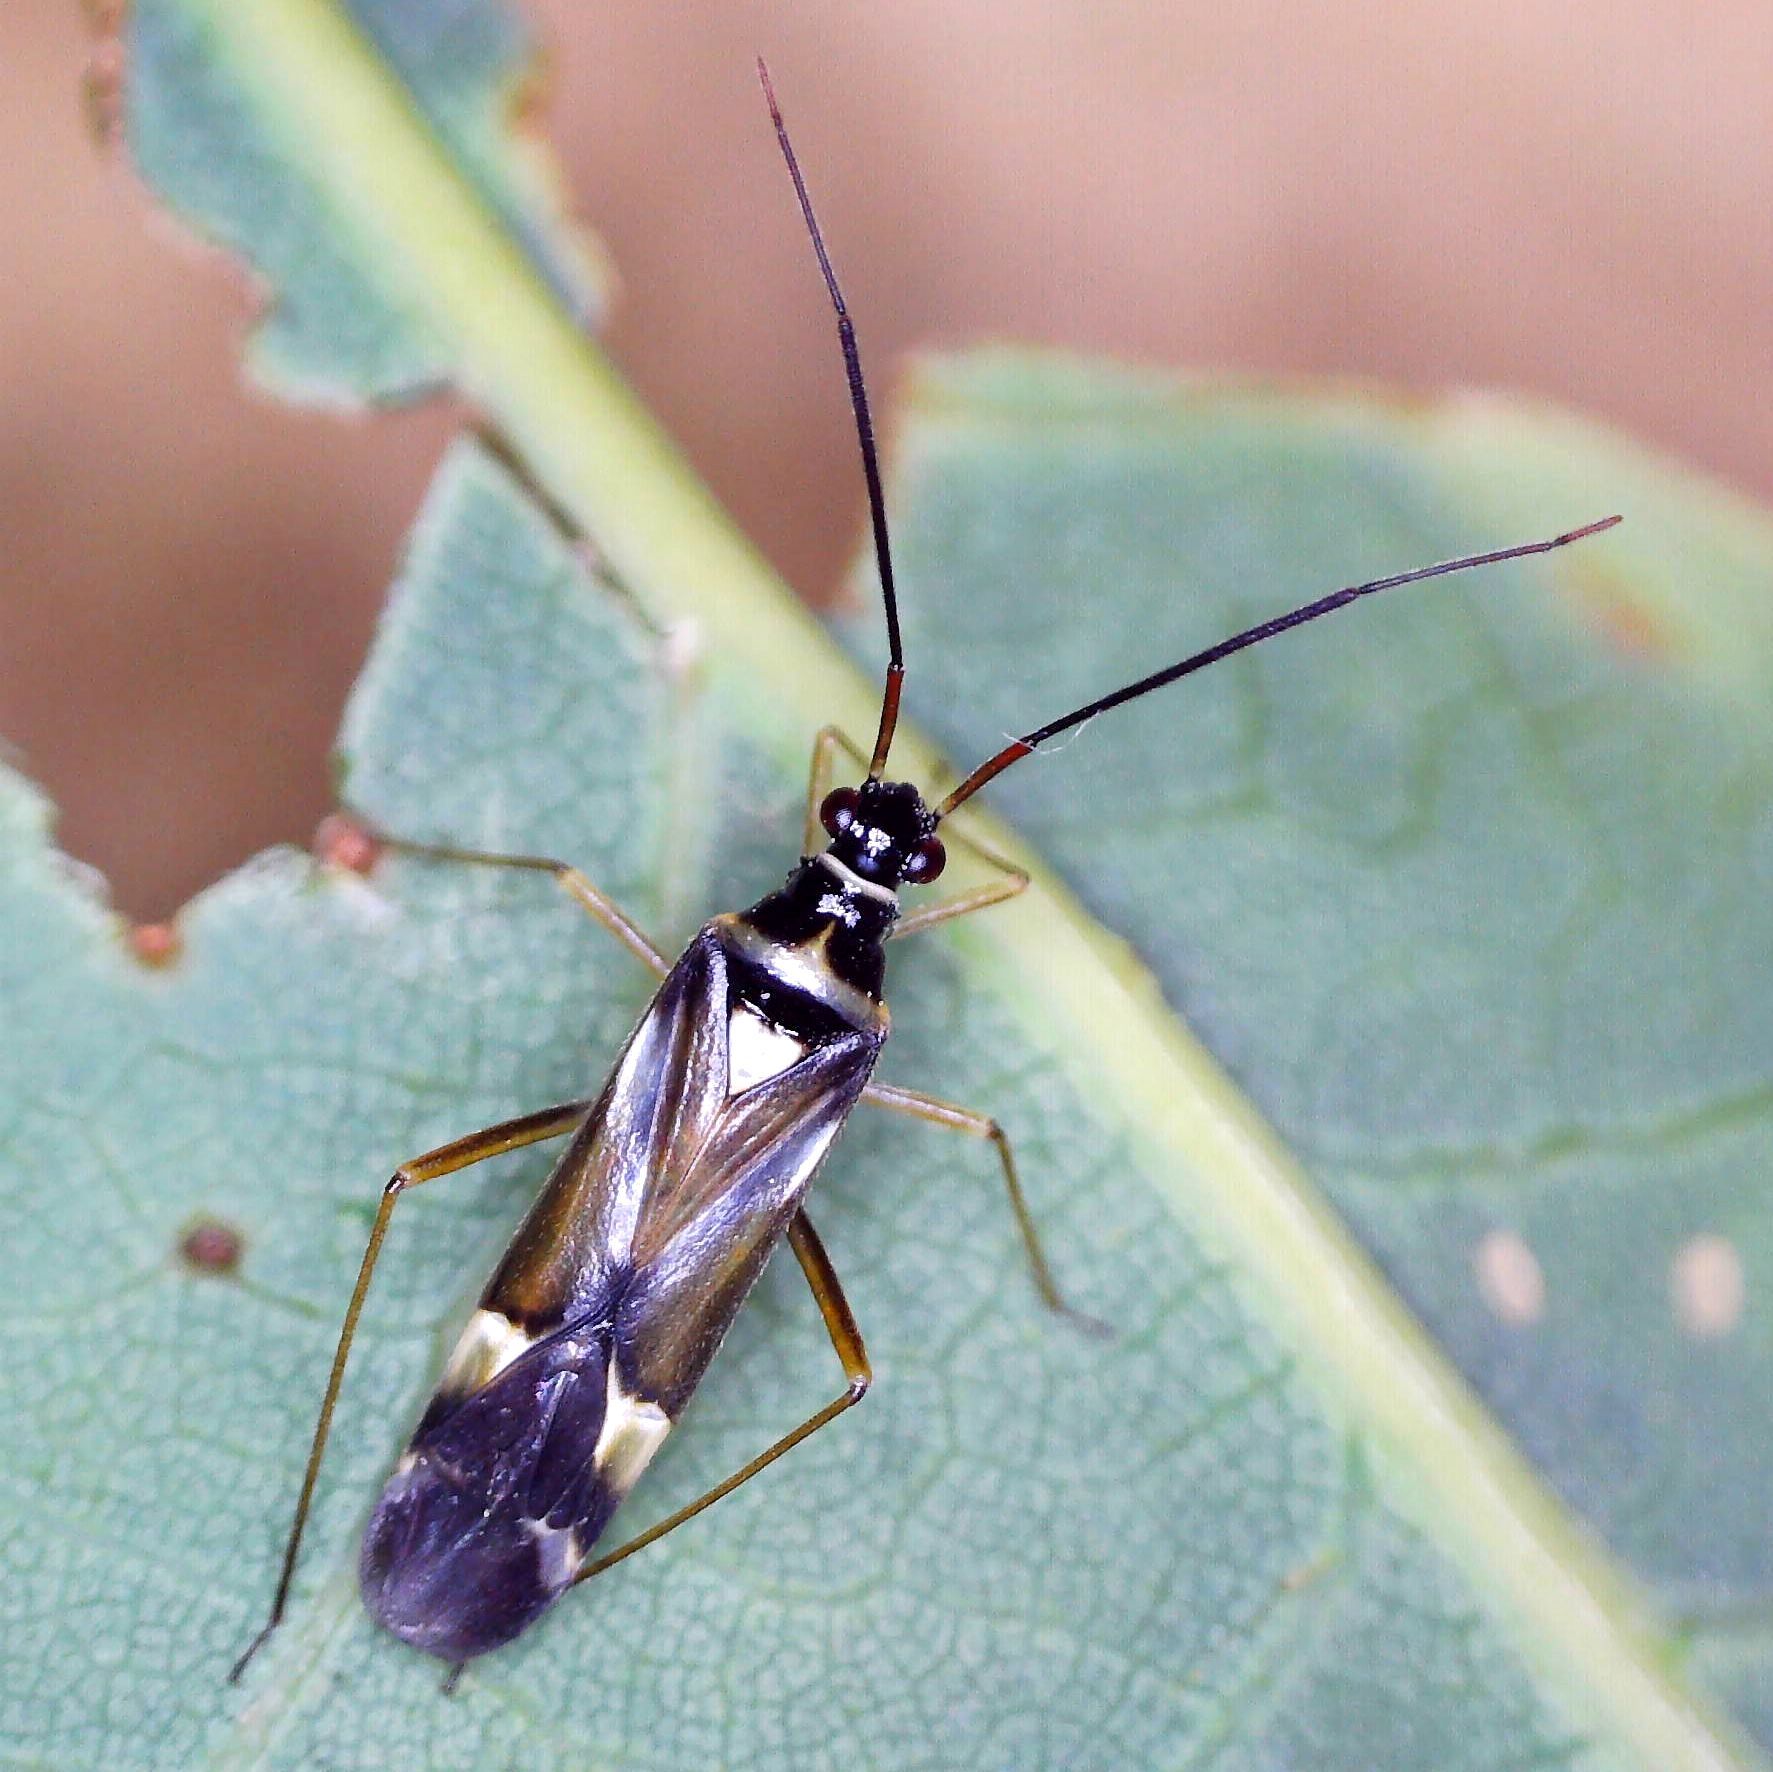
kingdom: Animalia
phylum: Arthropoda
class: Insecta
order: Hemiptera
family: Miridae
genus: Cyllecoris
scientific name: Cyllecoris histrionius
